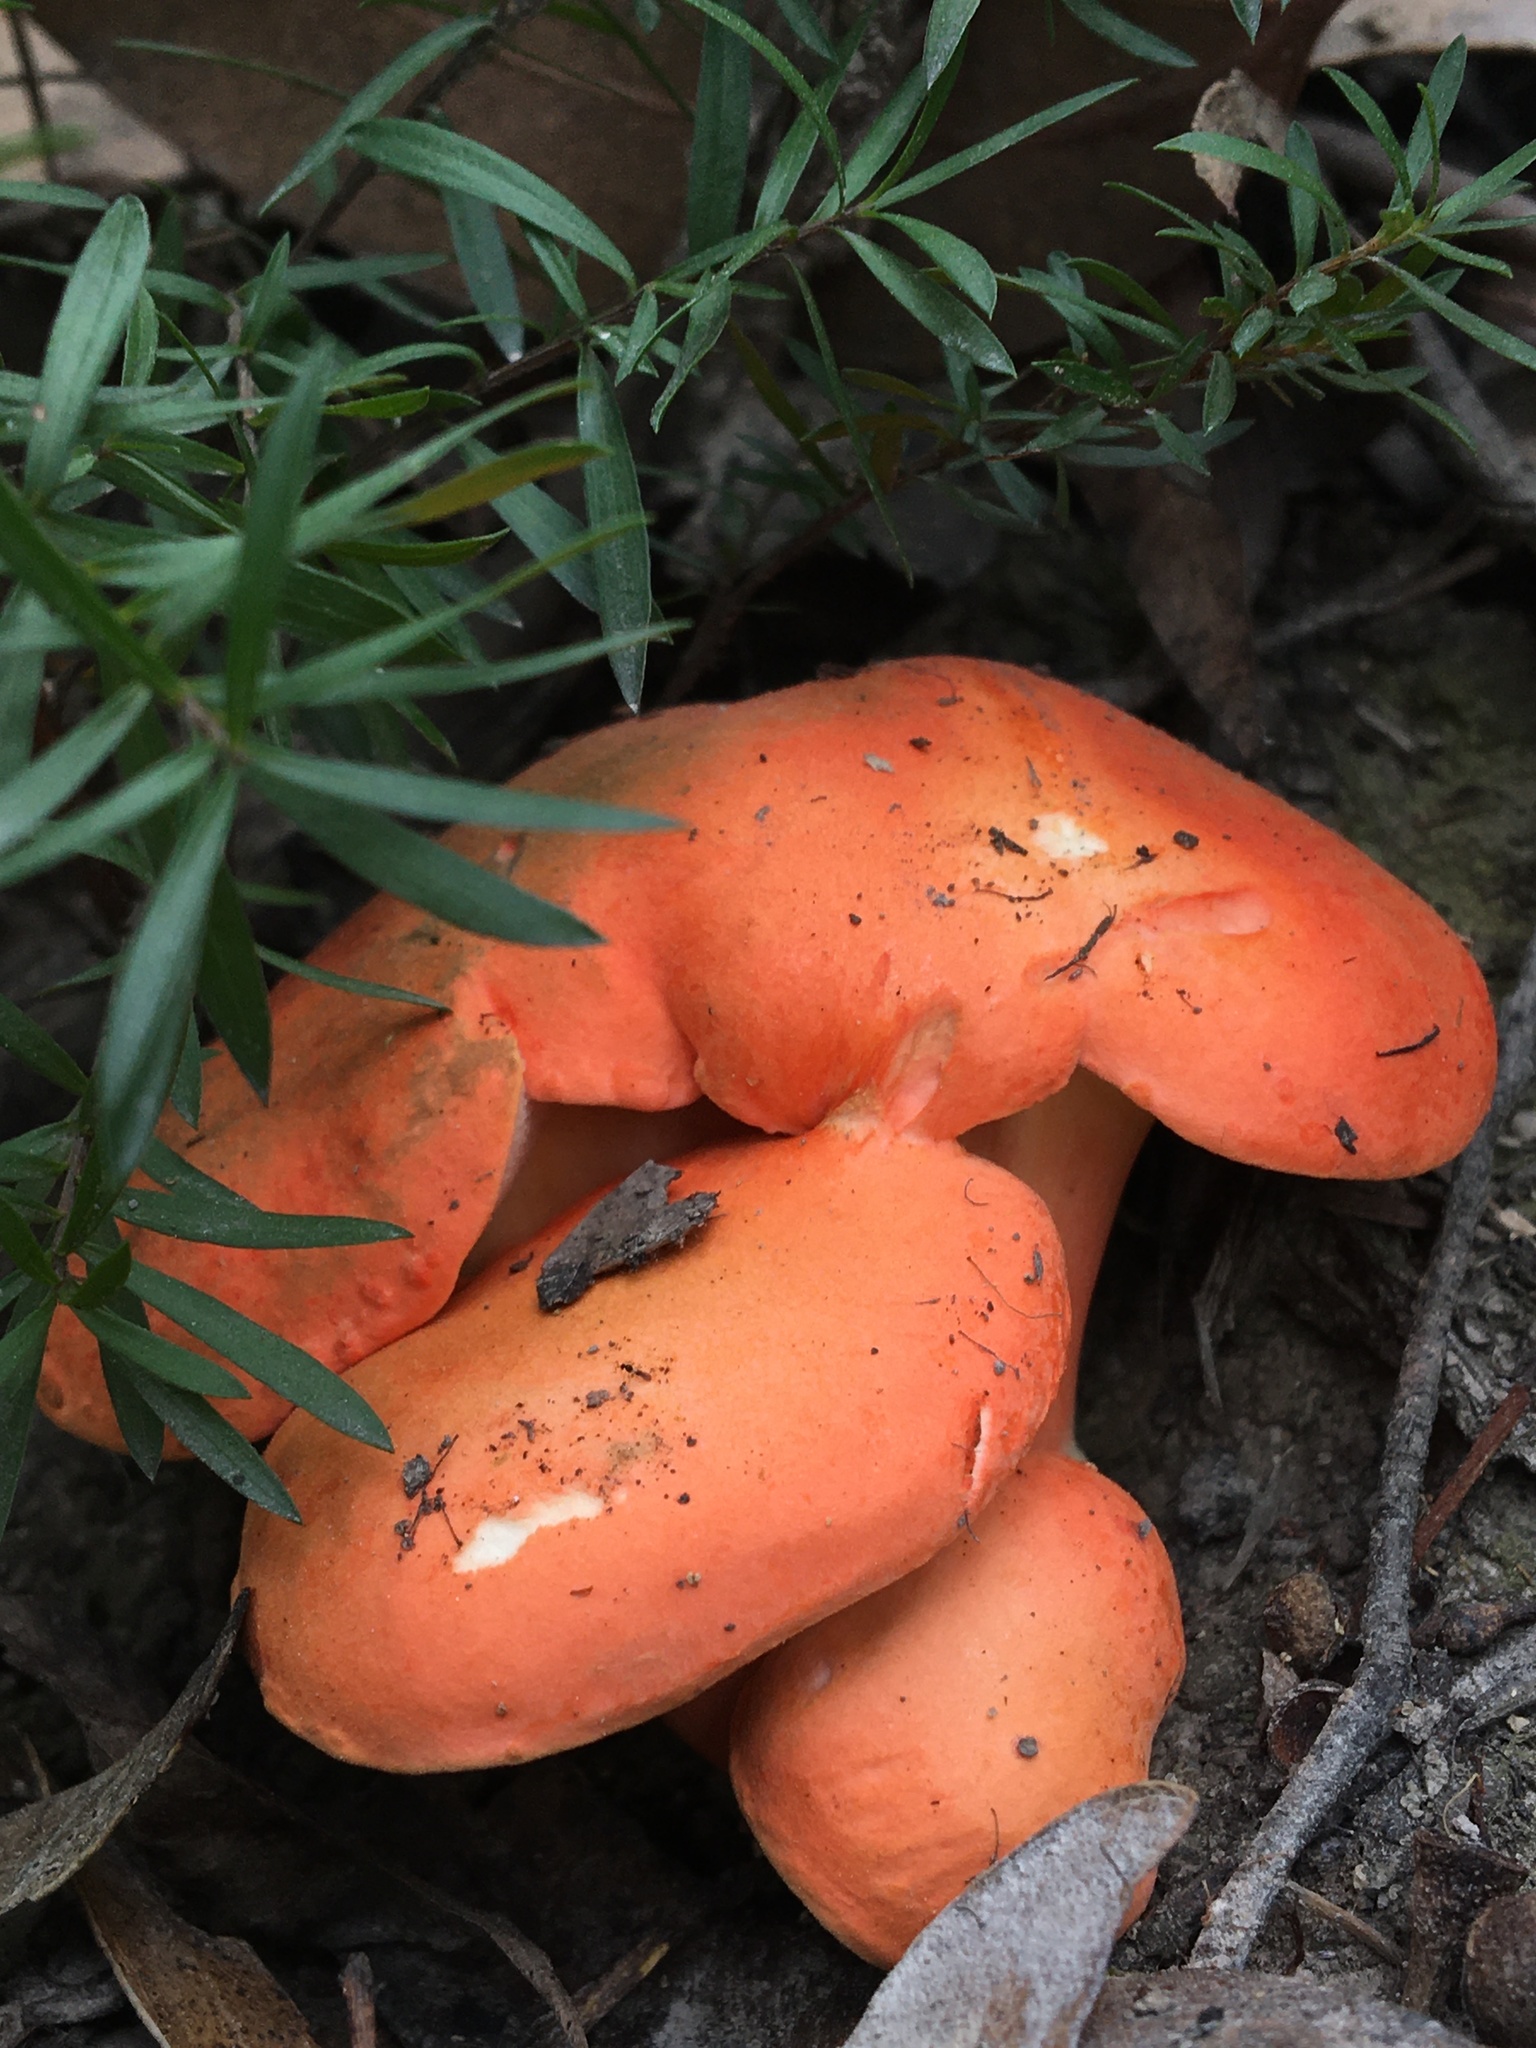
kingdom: Fungi
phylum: Basidiomycota
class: Agaricomycetes
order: Boletales
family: Boletaceae
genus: Tylopilus
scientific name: Tylopilus balloui
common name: Burnt-orange bolete
